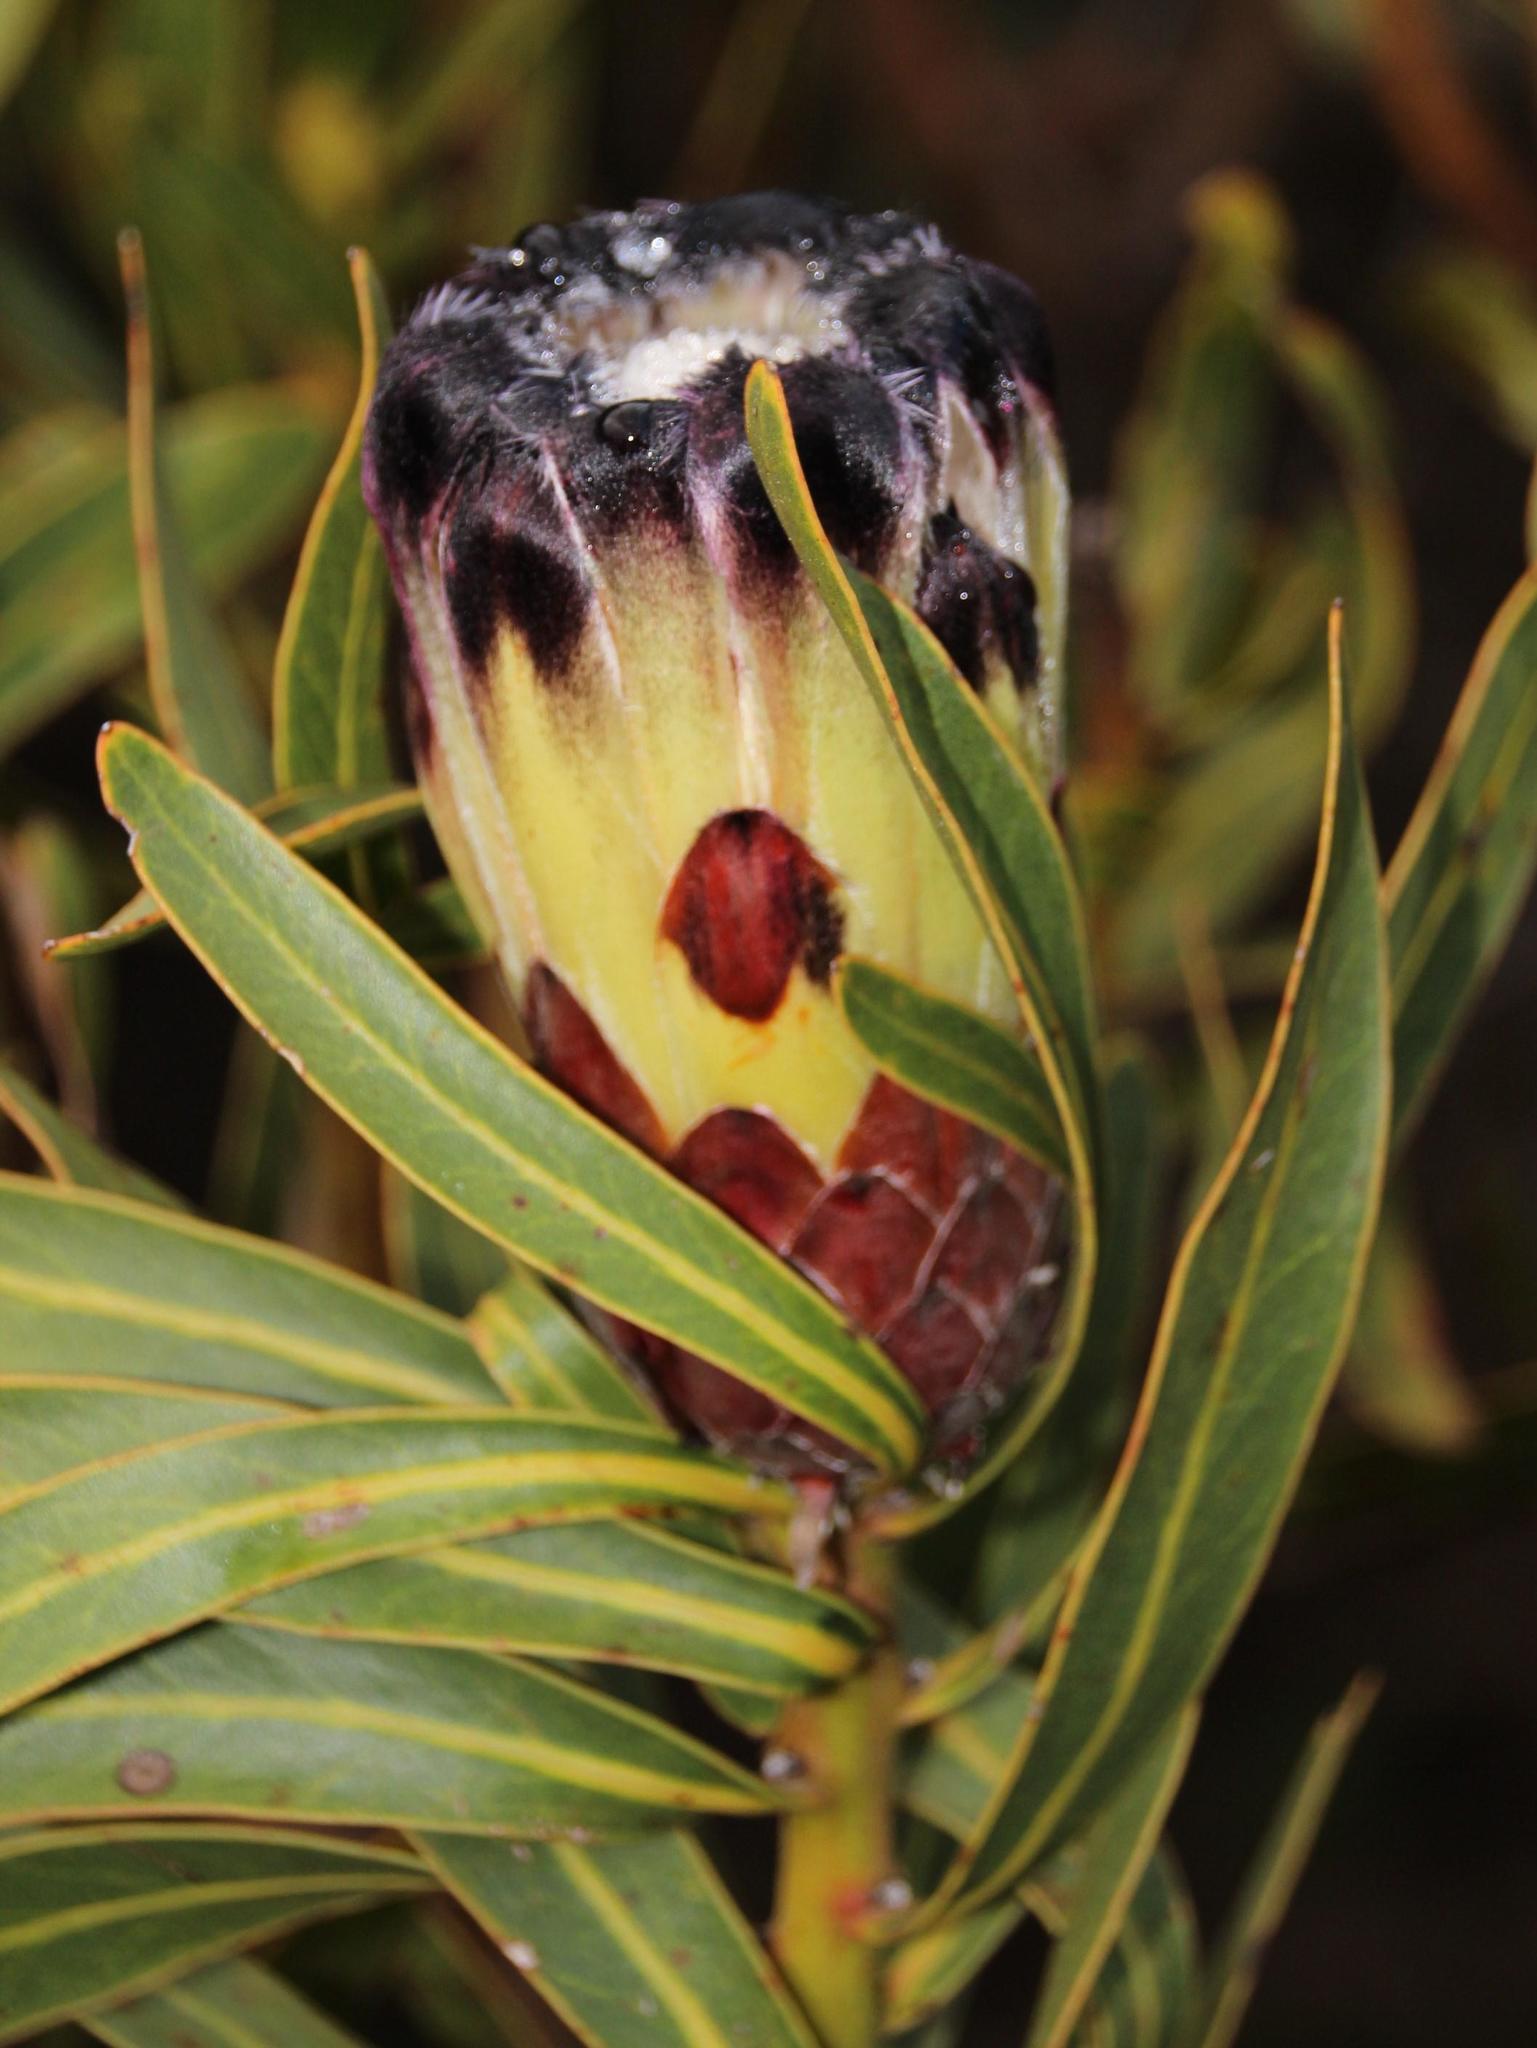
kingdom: Plantae
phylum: Tracheophyta
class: Magnoliopsida
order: Proteales
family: Proteaceae
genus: Protea
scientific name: Protea lepidocarpodendron
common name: Black-bearded protea
